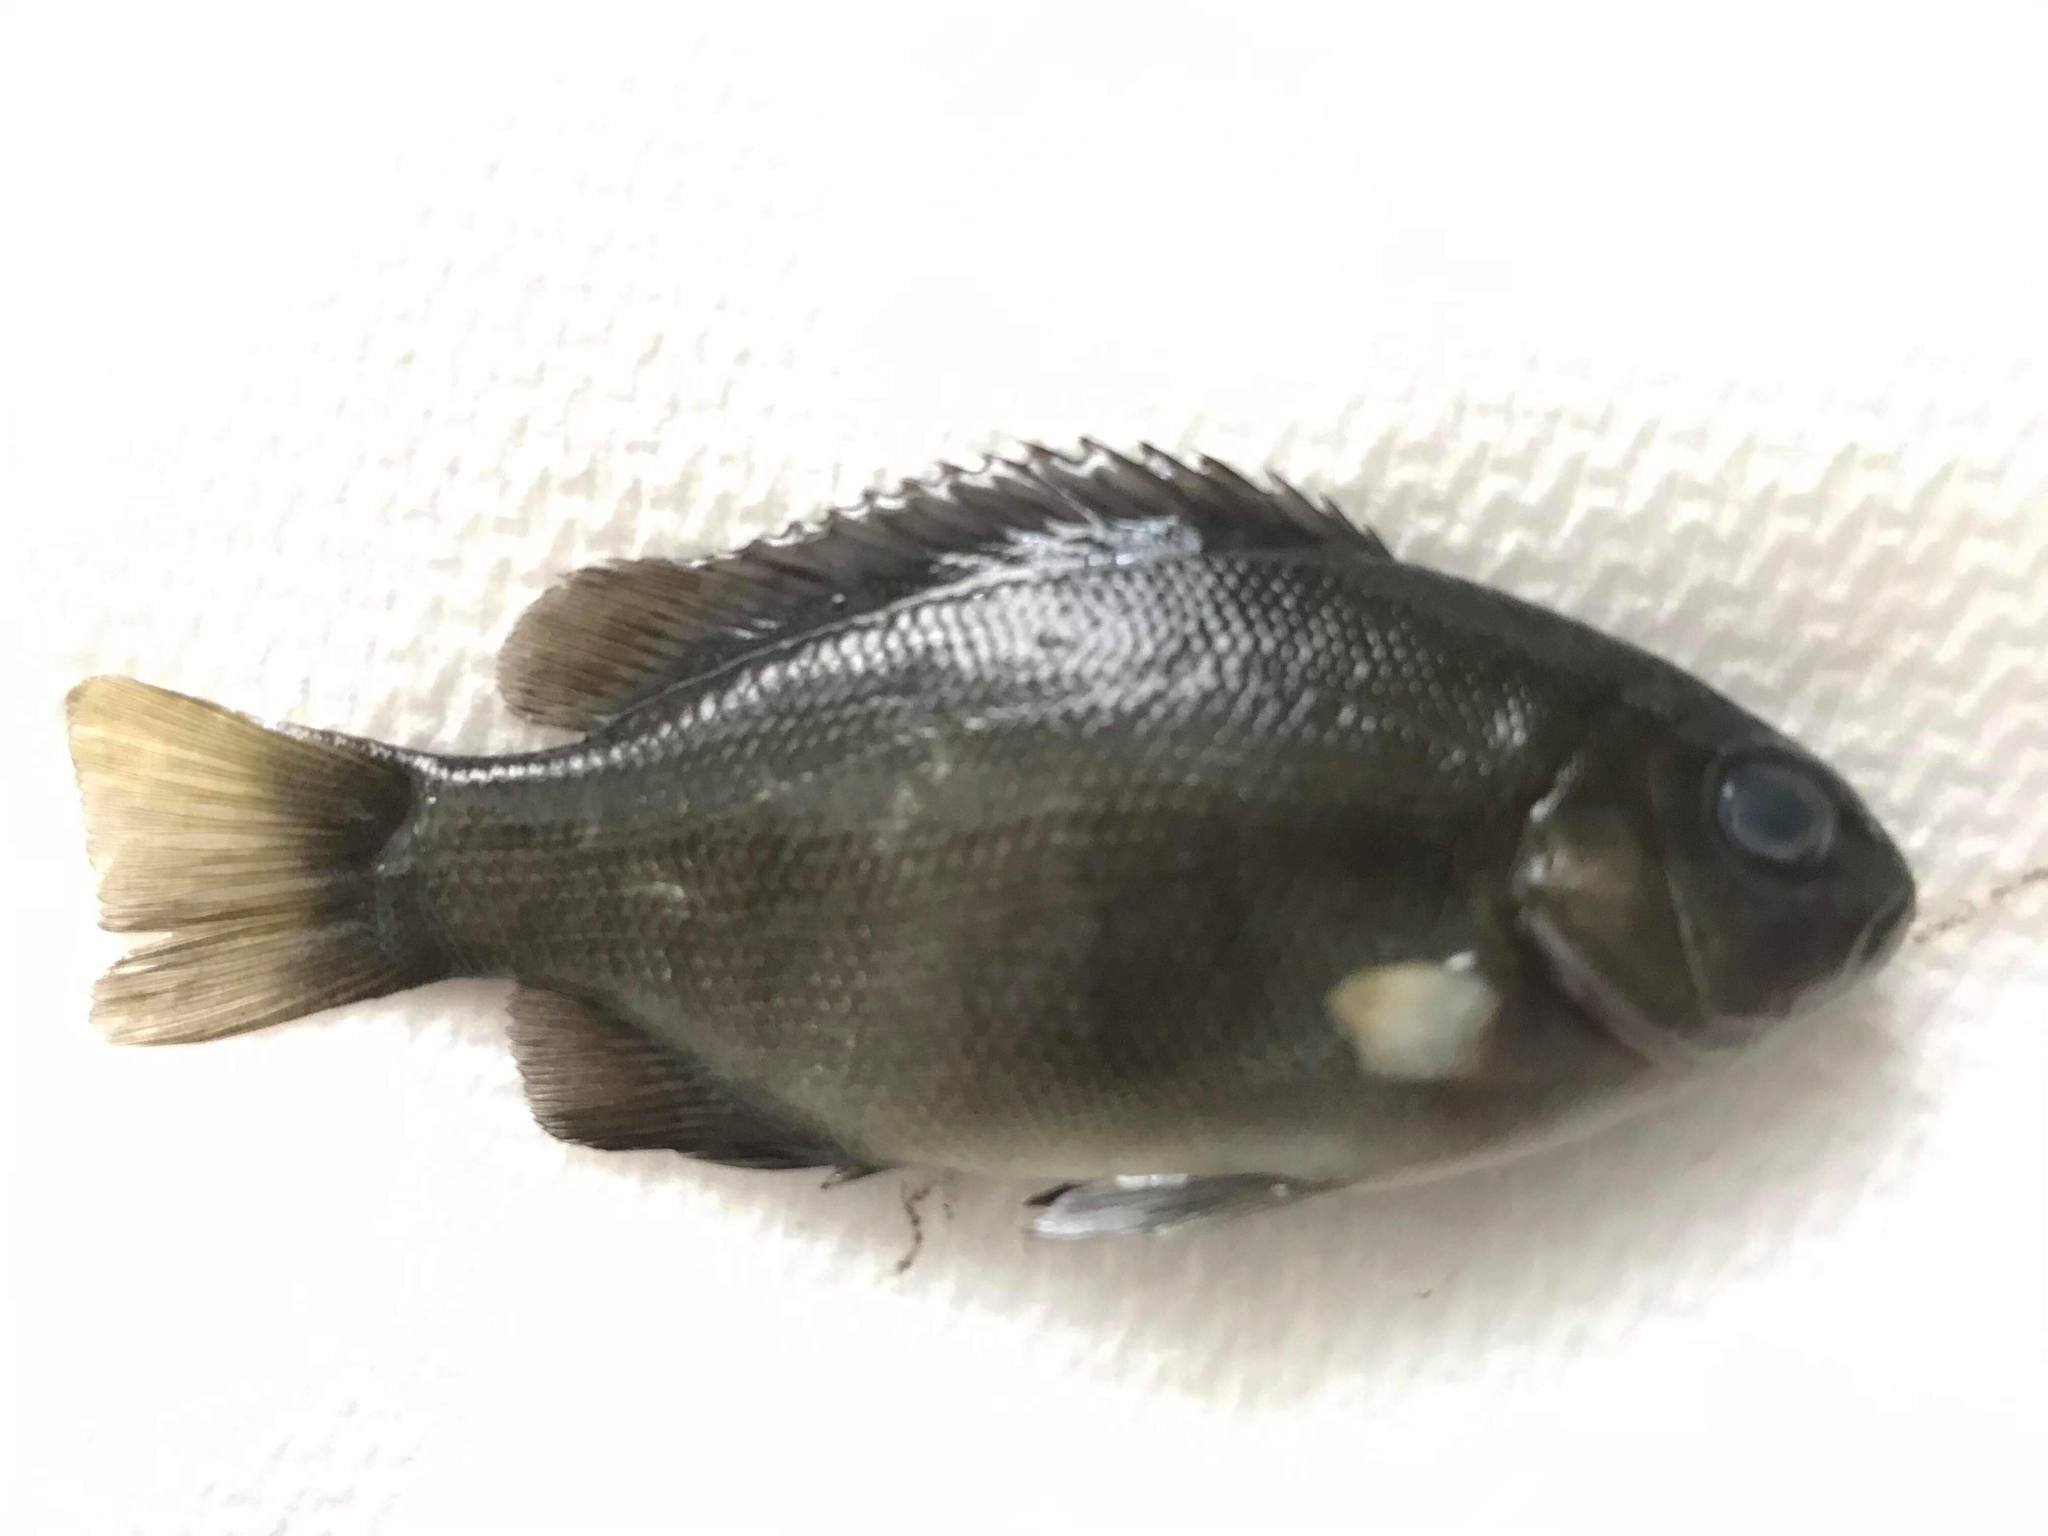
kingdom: Animalia
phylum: Chordata
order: Perciformes
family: Kyphosidae
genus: Girella
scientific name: Girella tricuspidata
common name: Parore
